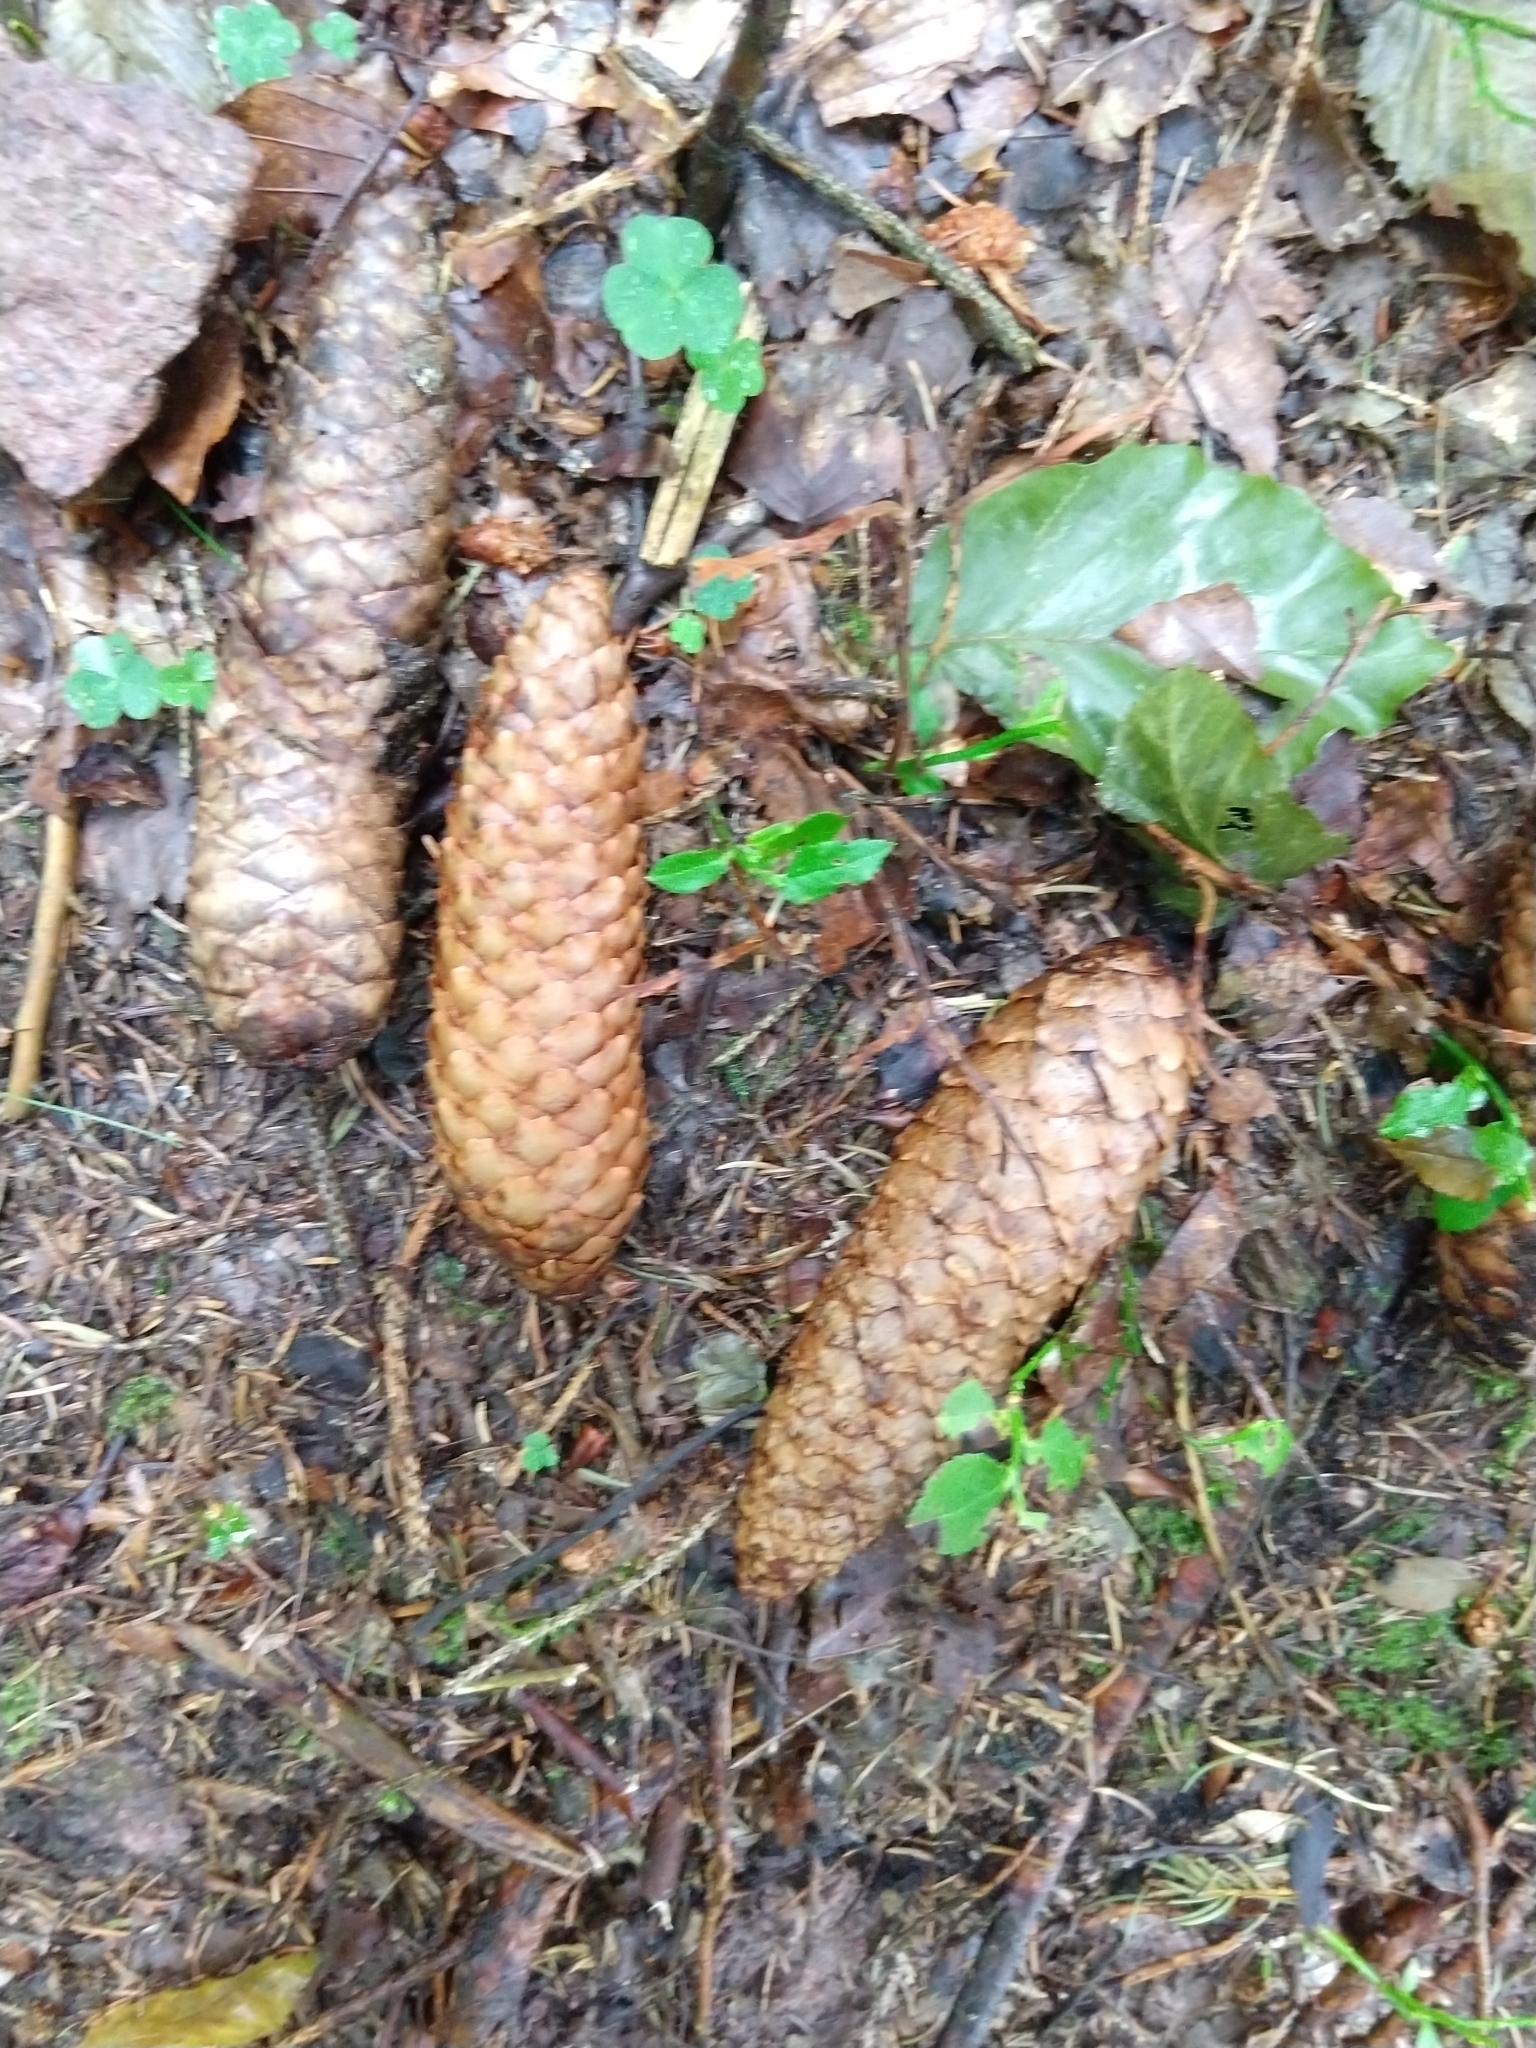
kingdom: Plantae
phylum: Tracheophyta
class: Pinopsida
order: Pinales
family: Pinaceae
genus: Picea
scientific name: Picea abies
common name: Norway spruce
